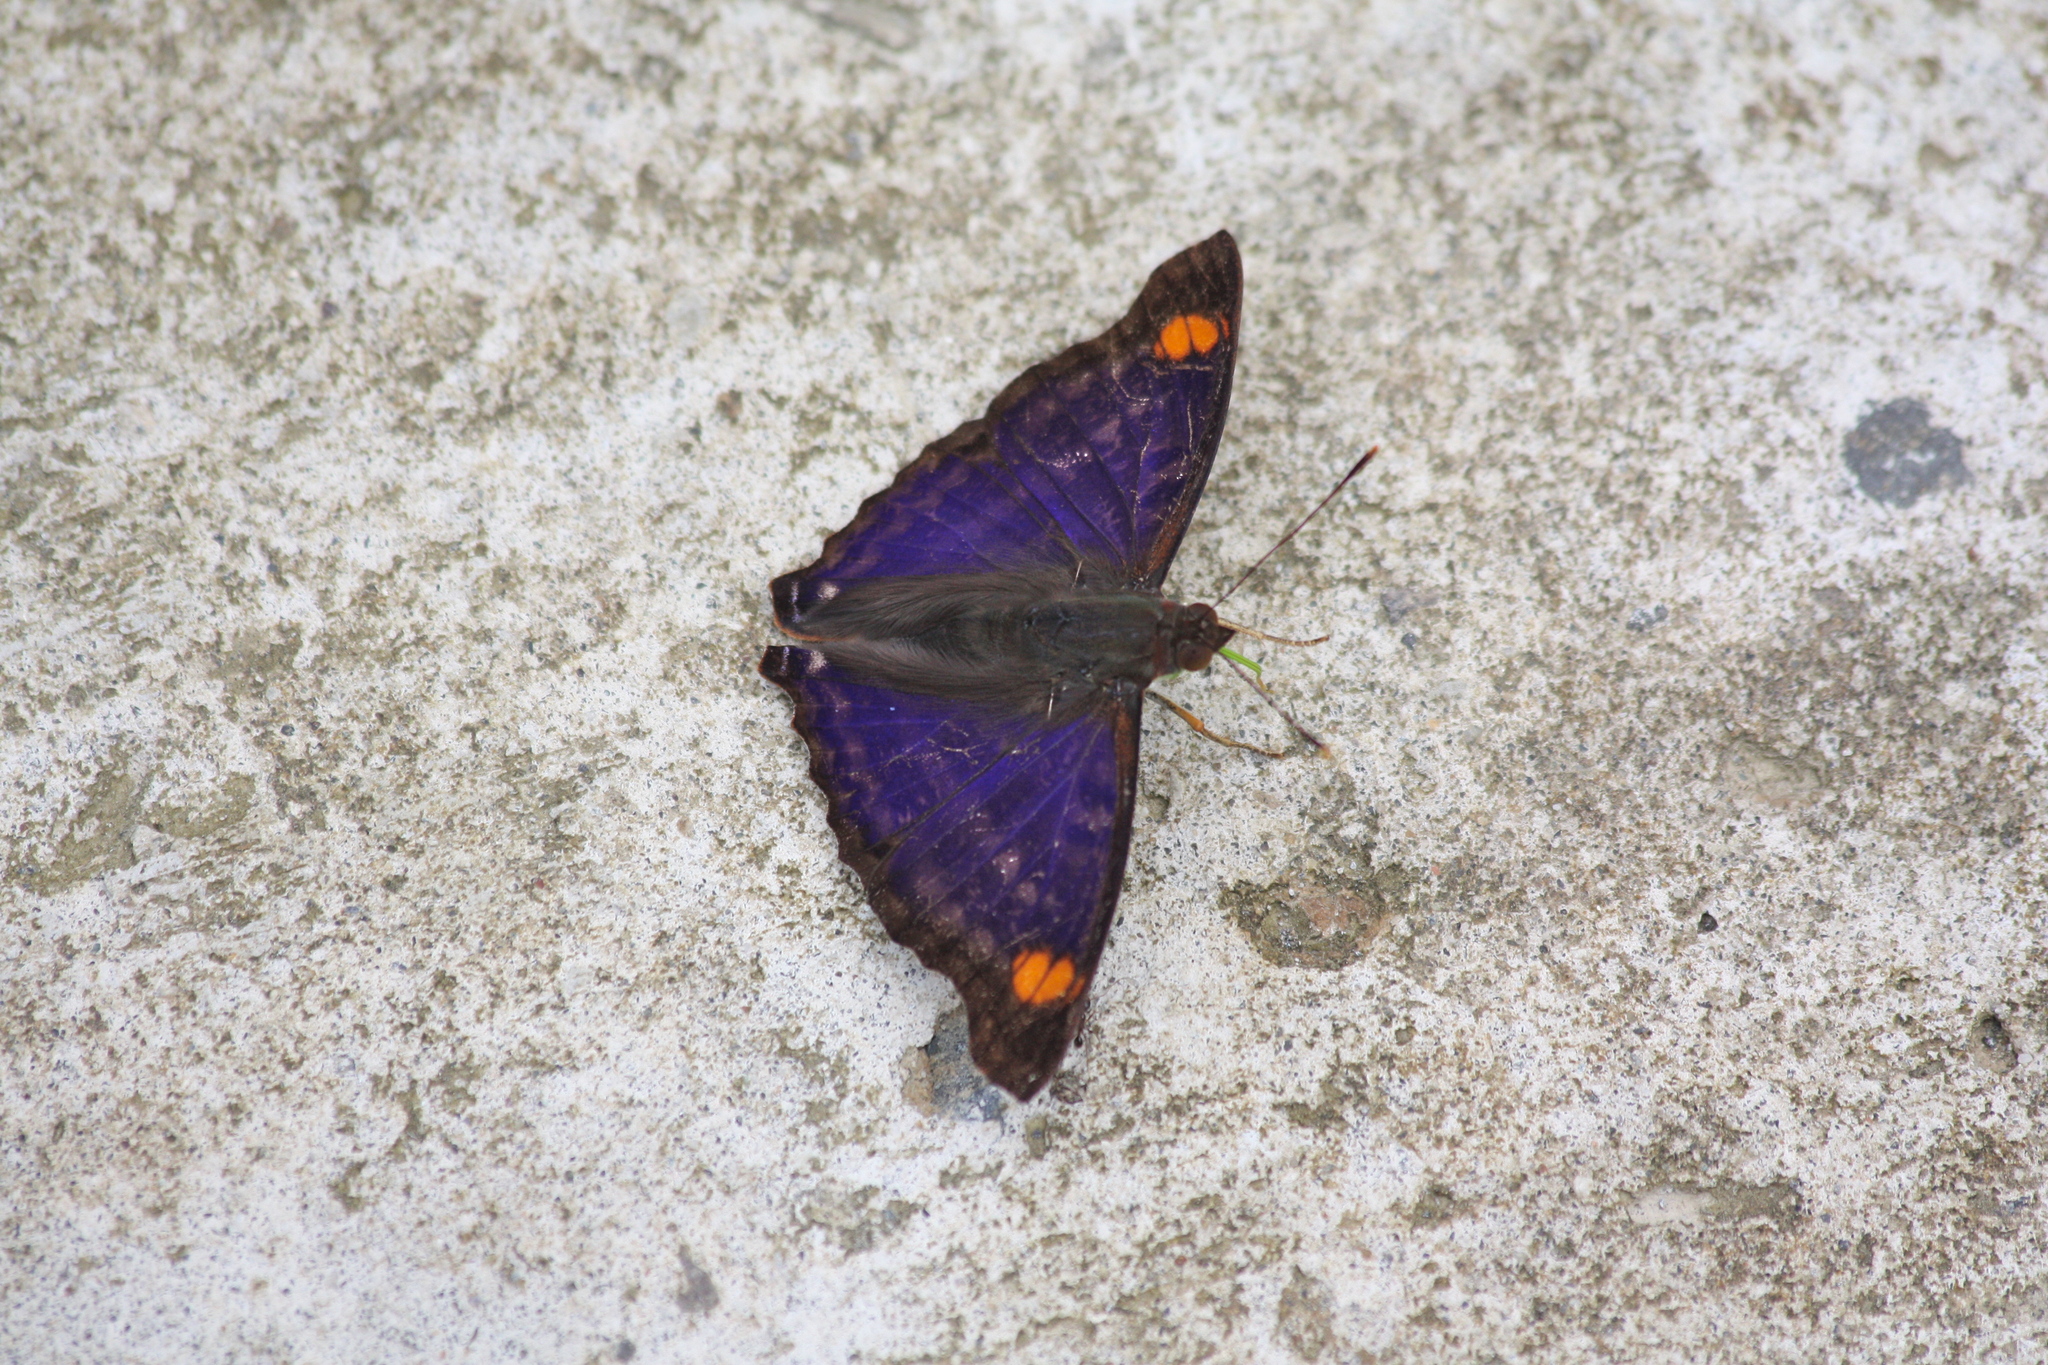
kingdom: Animalia
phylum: Arthropoda
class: Insecta
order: Lepidoptera
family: Nymphalidae
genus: Doxocopa
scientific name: Doxocopa pavon
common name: Pavon emperor
